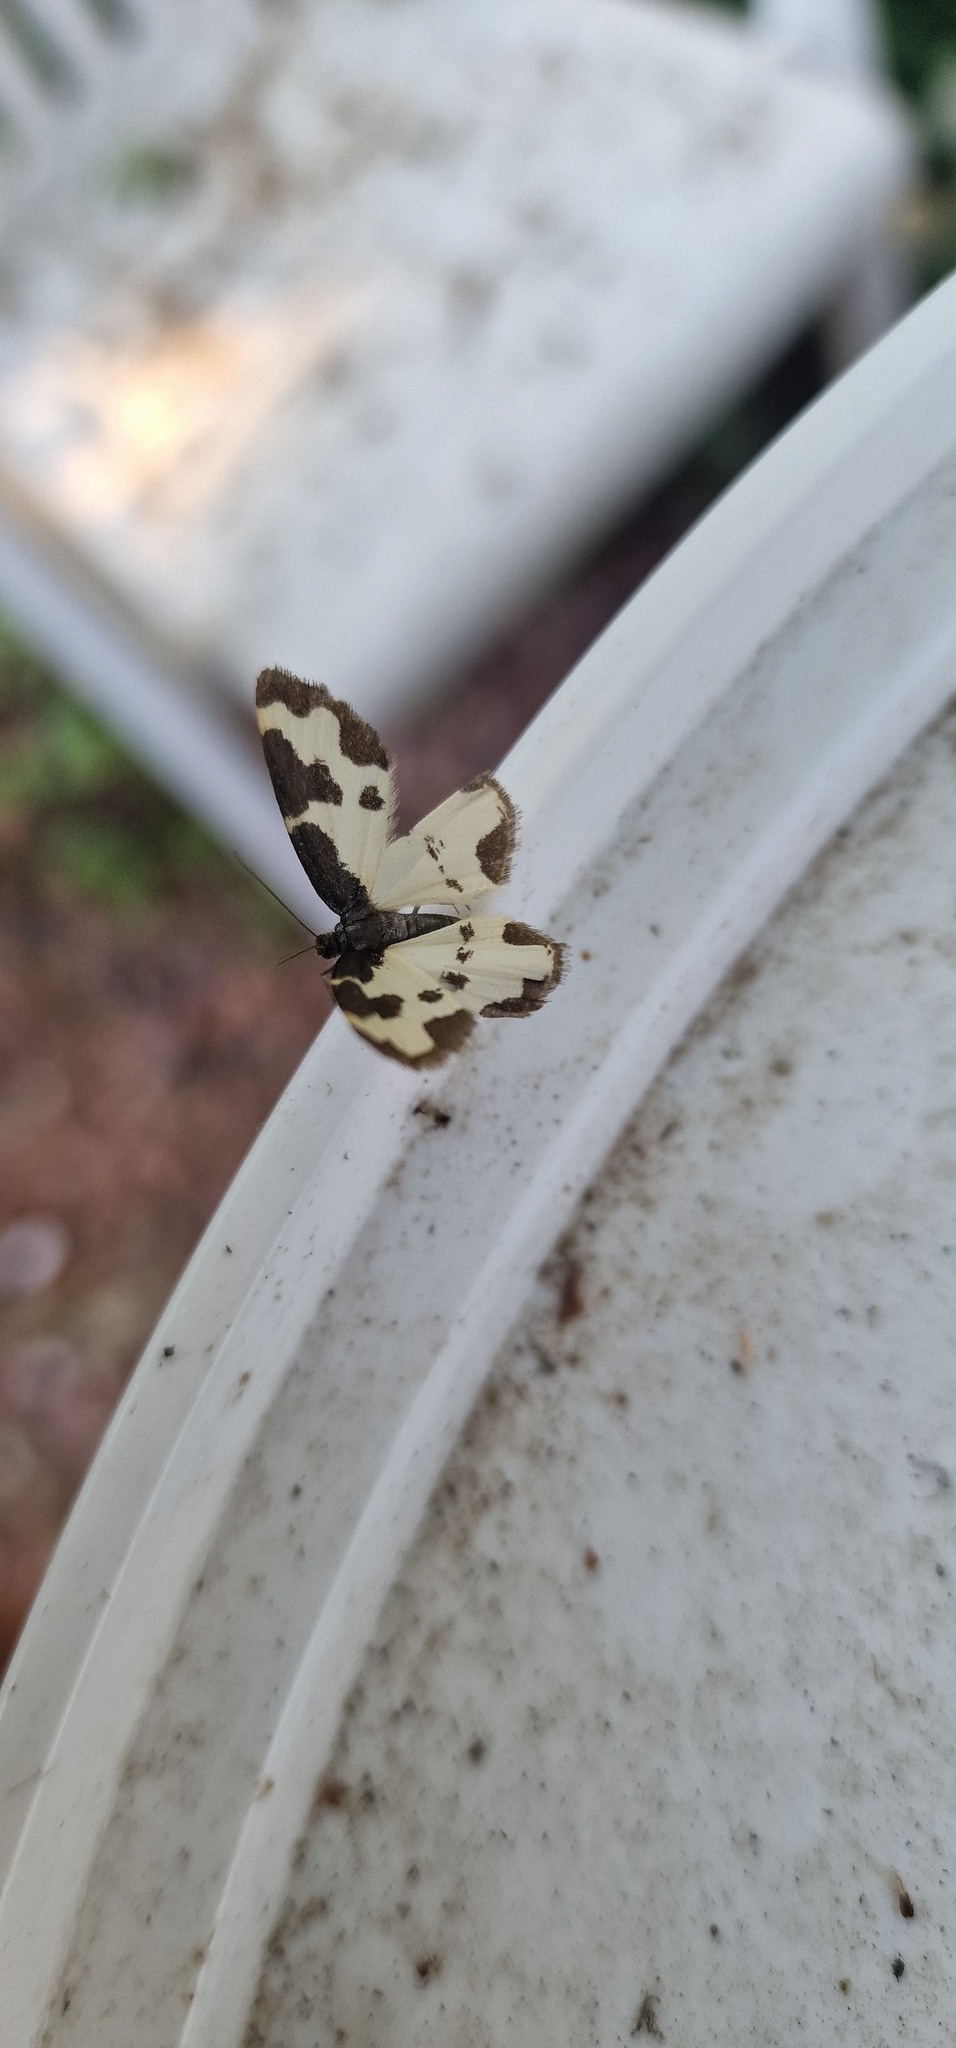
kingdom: Animalia
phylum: Arthropoda
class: Insecta
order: Lepidoptera
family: Geometridae
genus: Lomaspilis
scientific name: Lomaspilis marginata
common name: Clouded border
